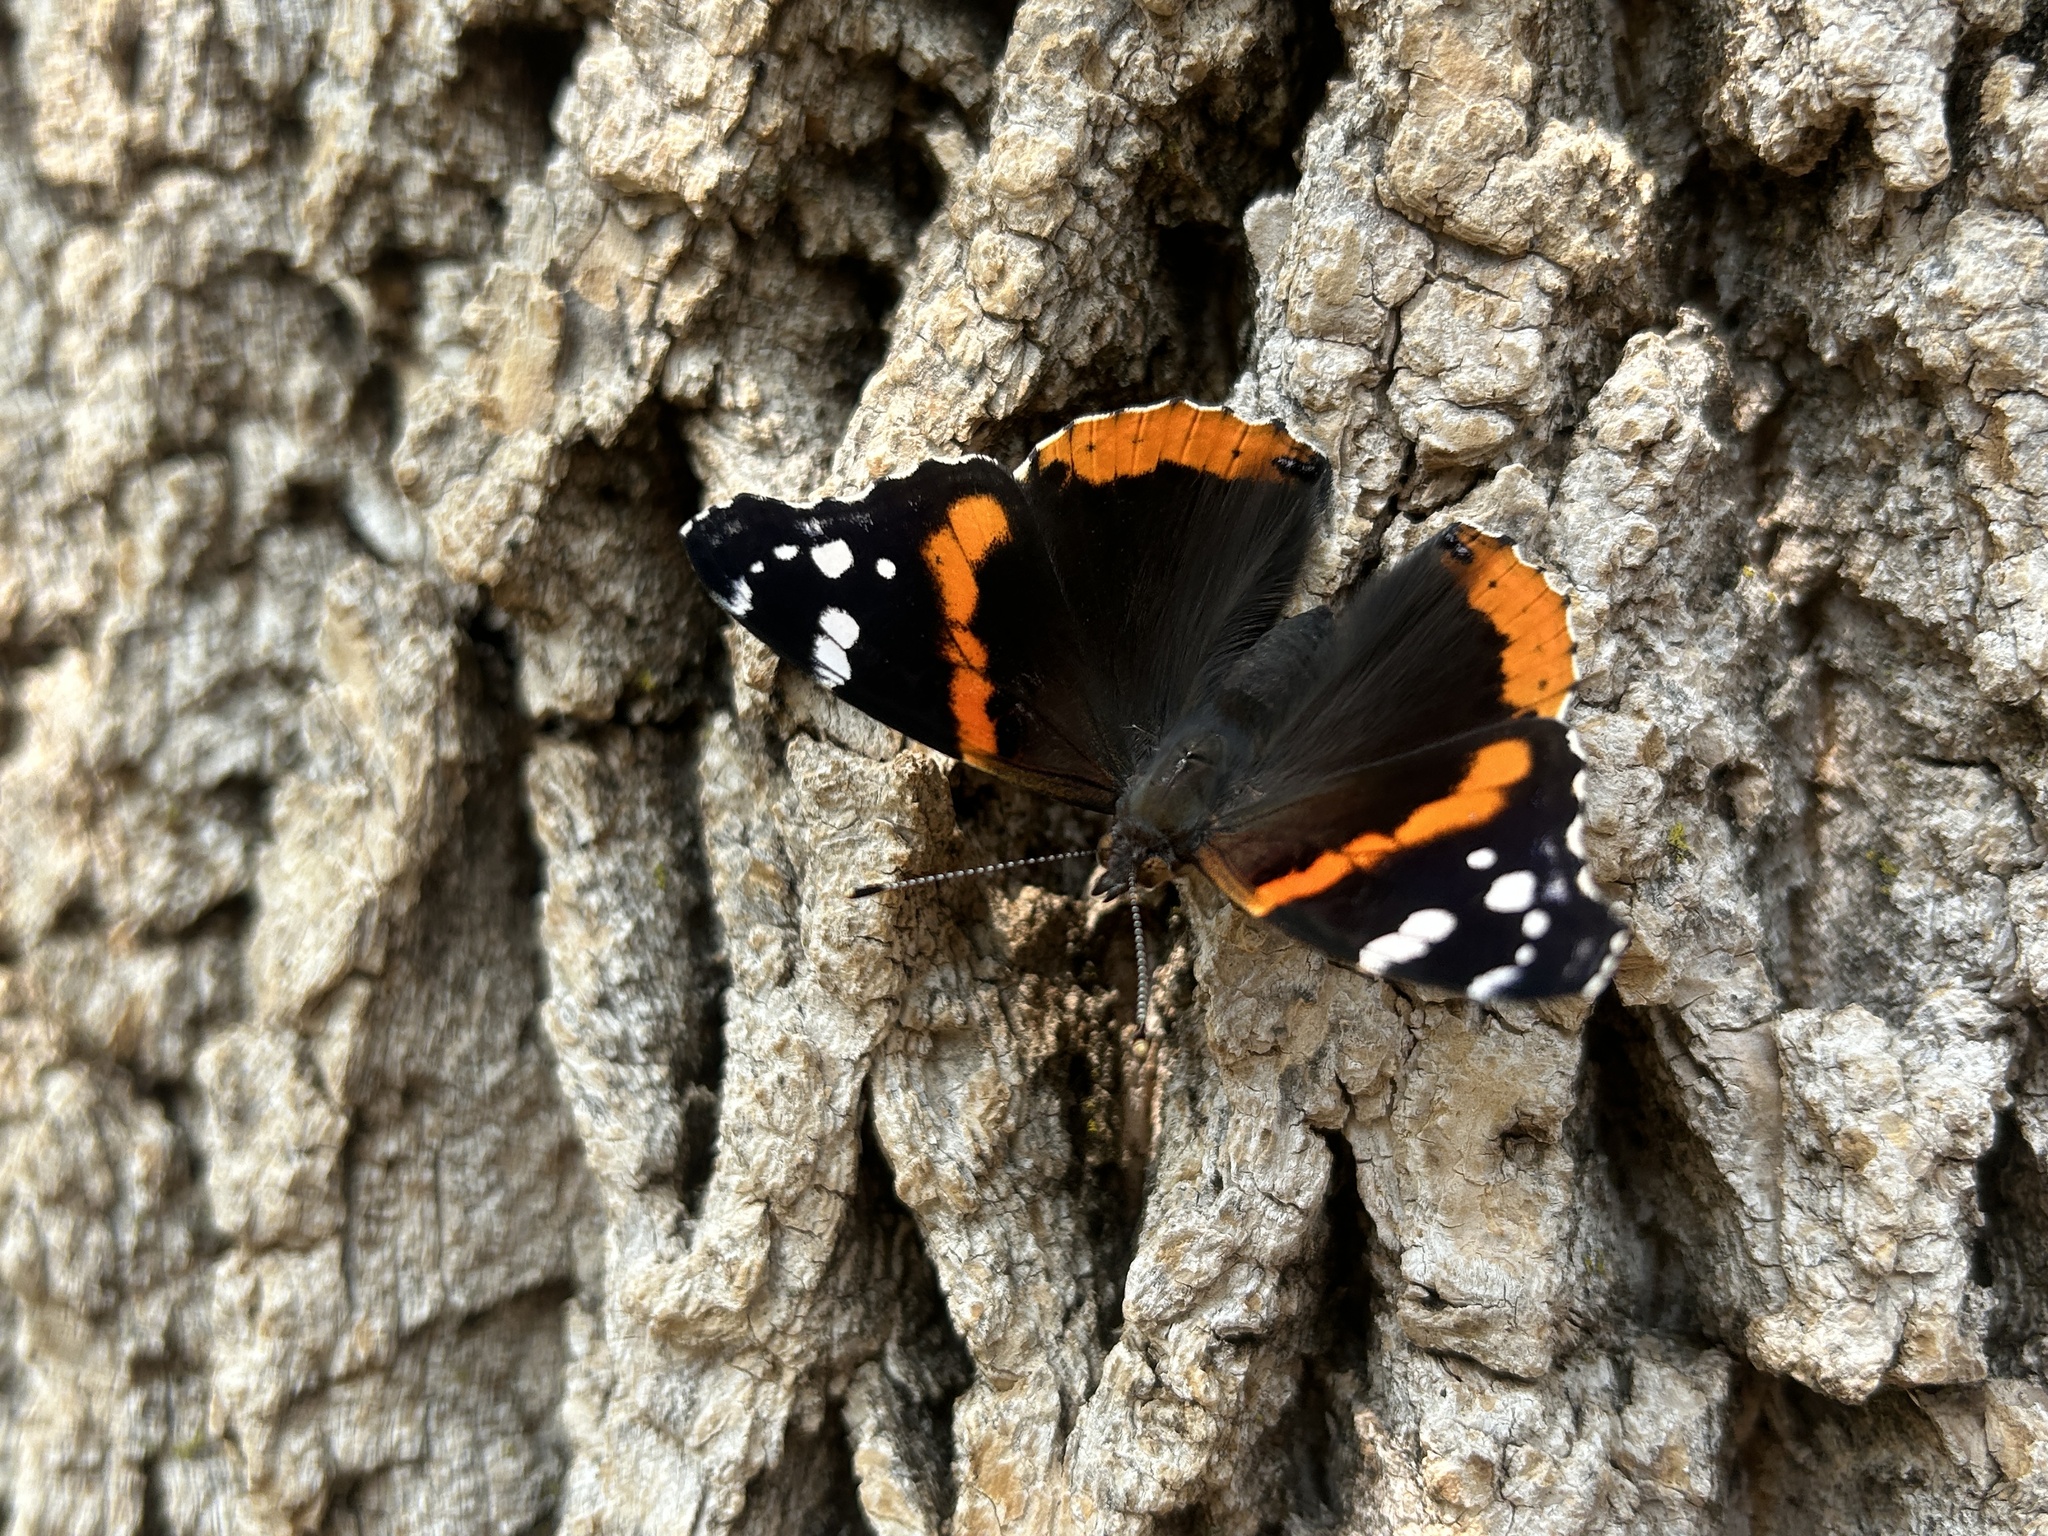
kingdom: Animalia
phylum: Arthropoda
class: Insecta
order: Lepidoptera
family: Nymphalidae
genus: Vanessa
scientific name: Vanessa atalanta
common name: Red admiral
